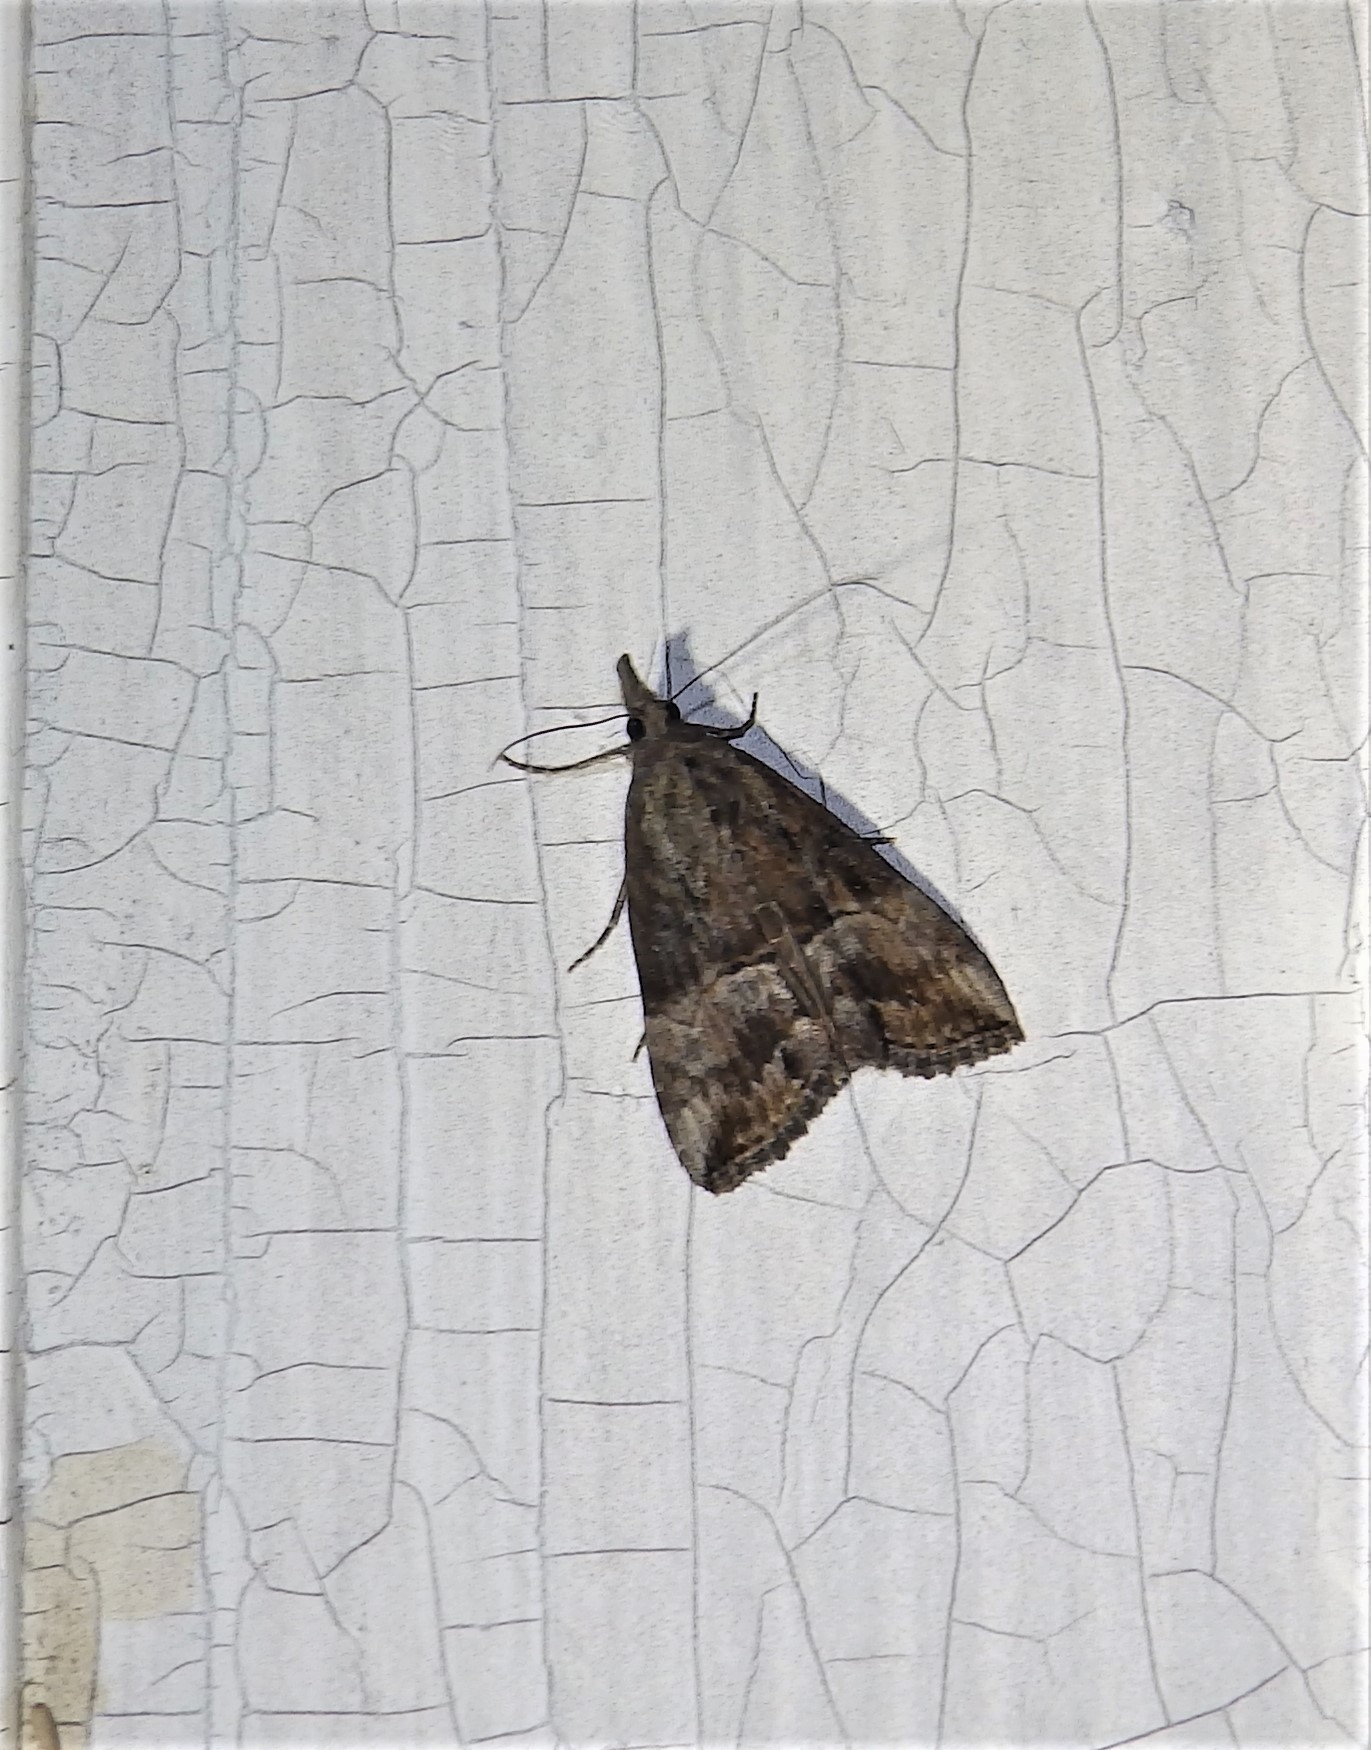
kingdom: Animalia
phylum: Arthropoda
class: Insecta
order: Lepidoptera
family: Erebidae
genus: Hypena
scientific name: Hypena scabra
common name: Green cloverworm
